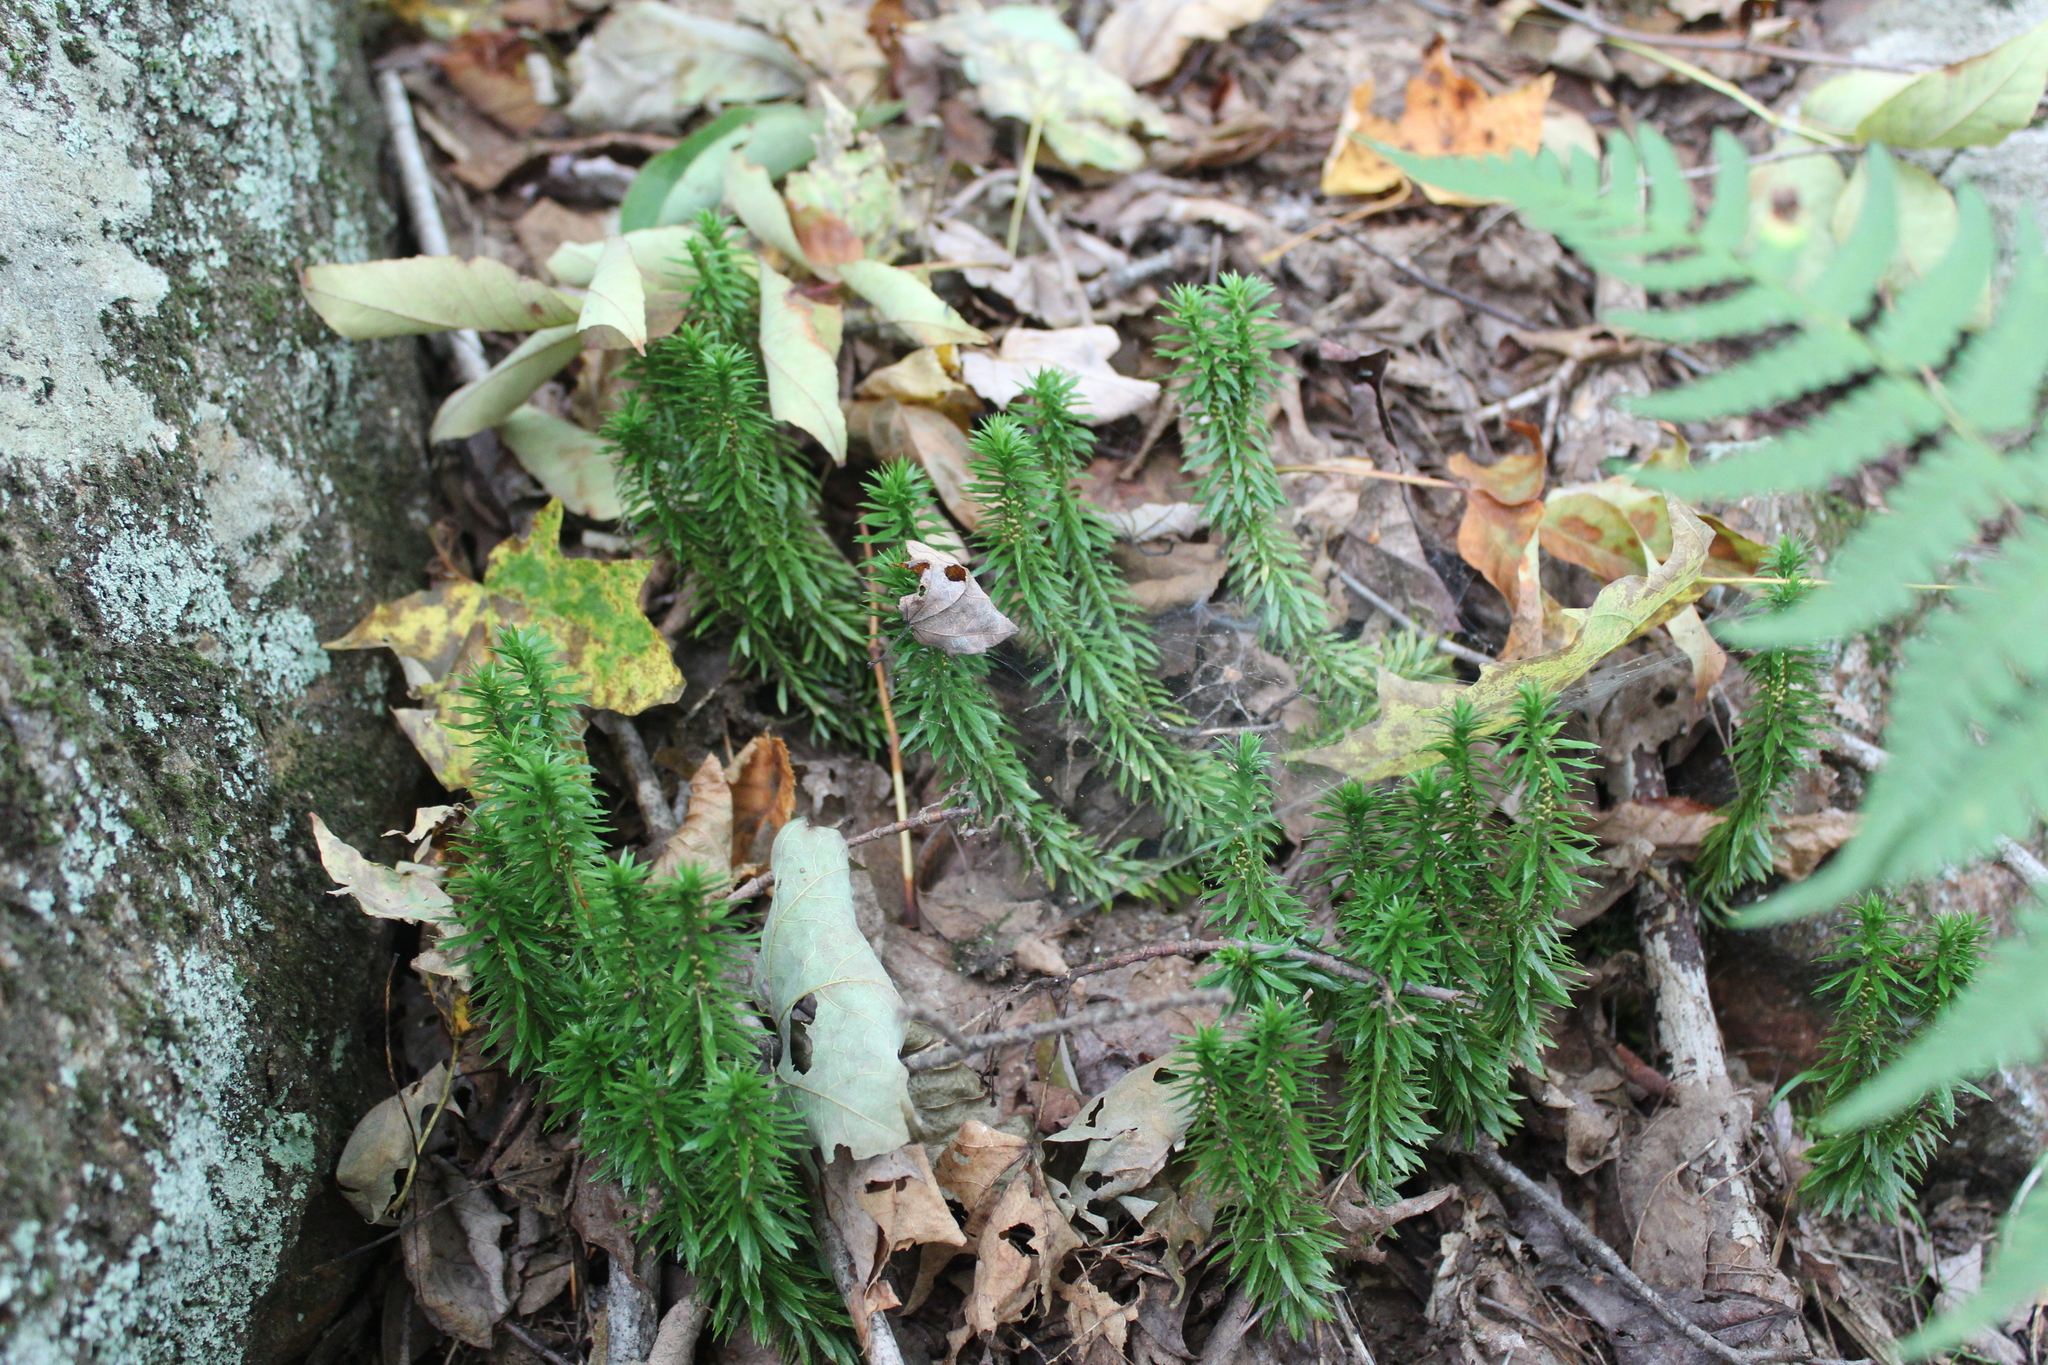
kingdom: Plantae
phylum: Tracheophyta
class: Lycopodiopsida
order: Lycopodiales
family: Lycopodiaceae
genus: Huperzia
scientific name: Huperzia lucidula
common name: Shining clubmoss
